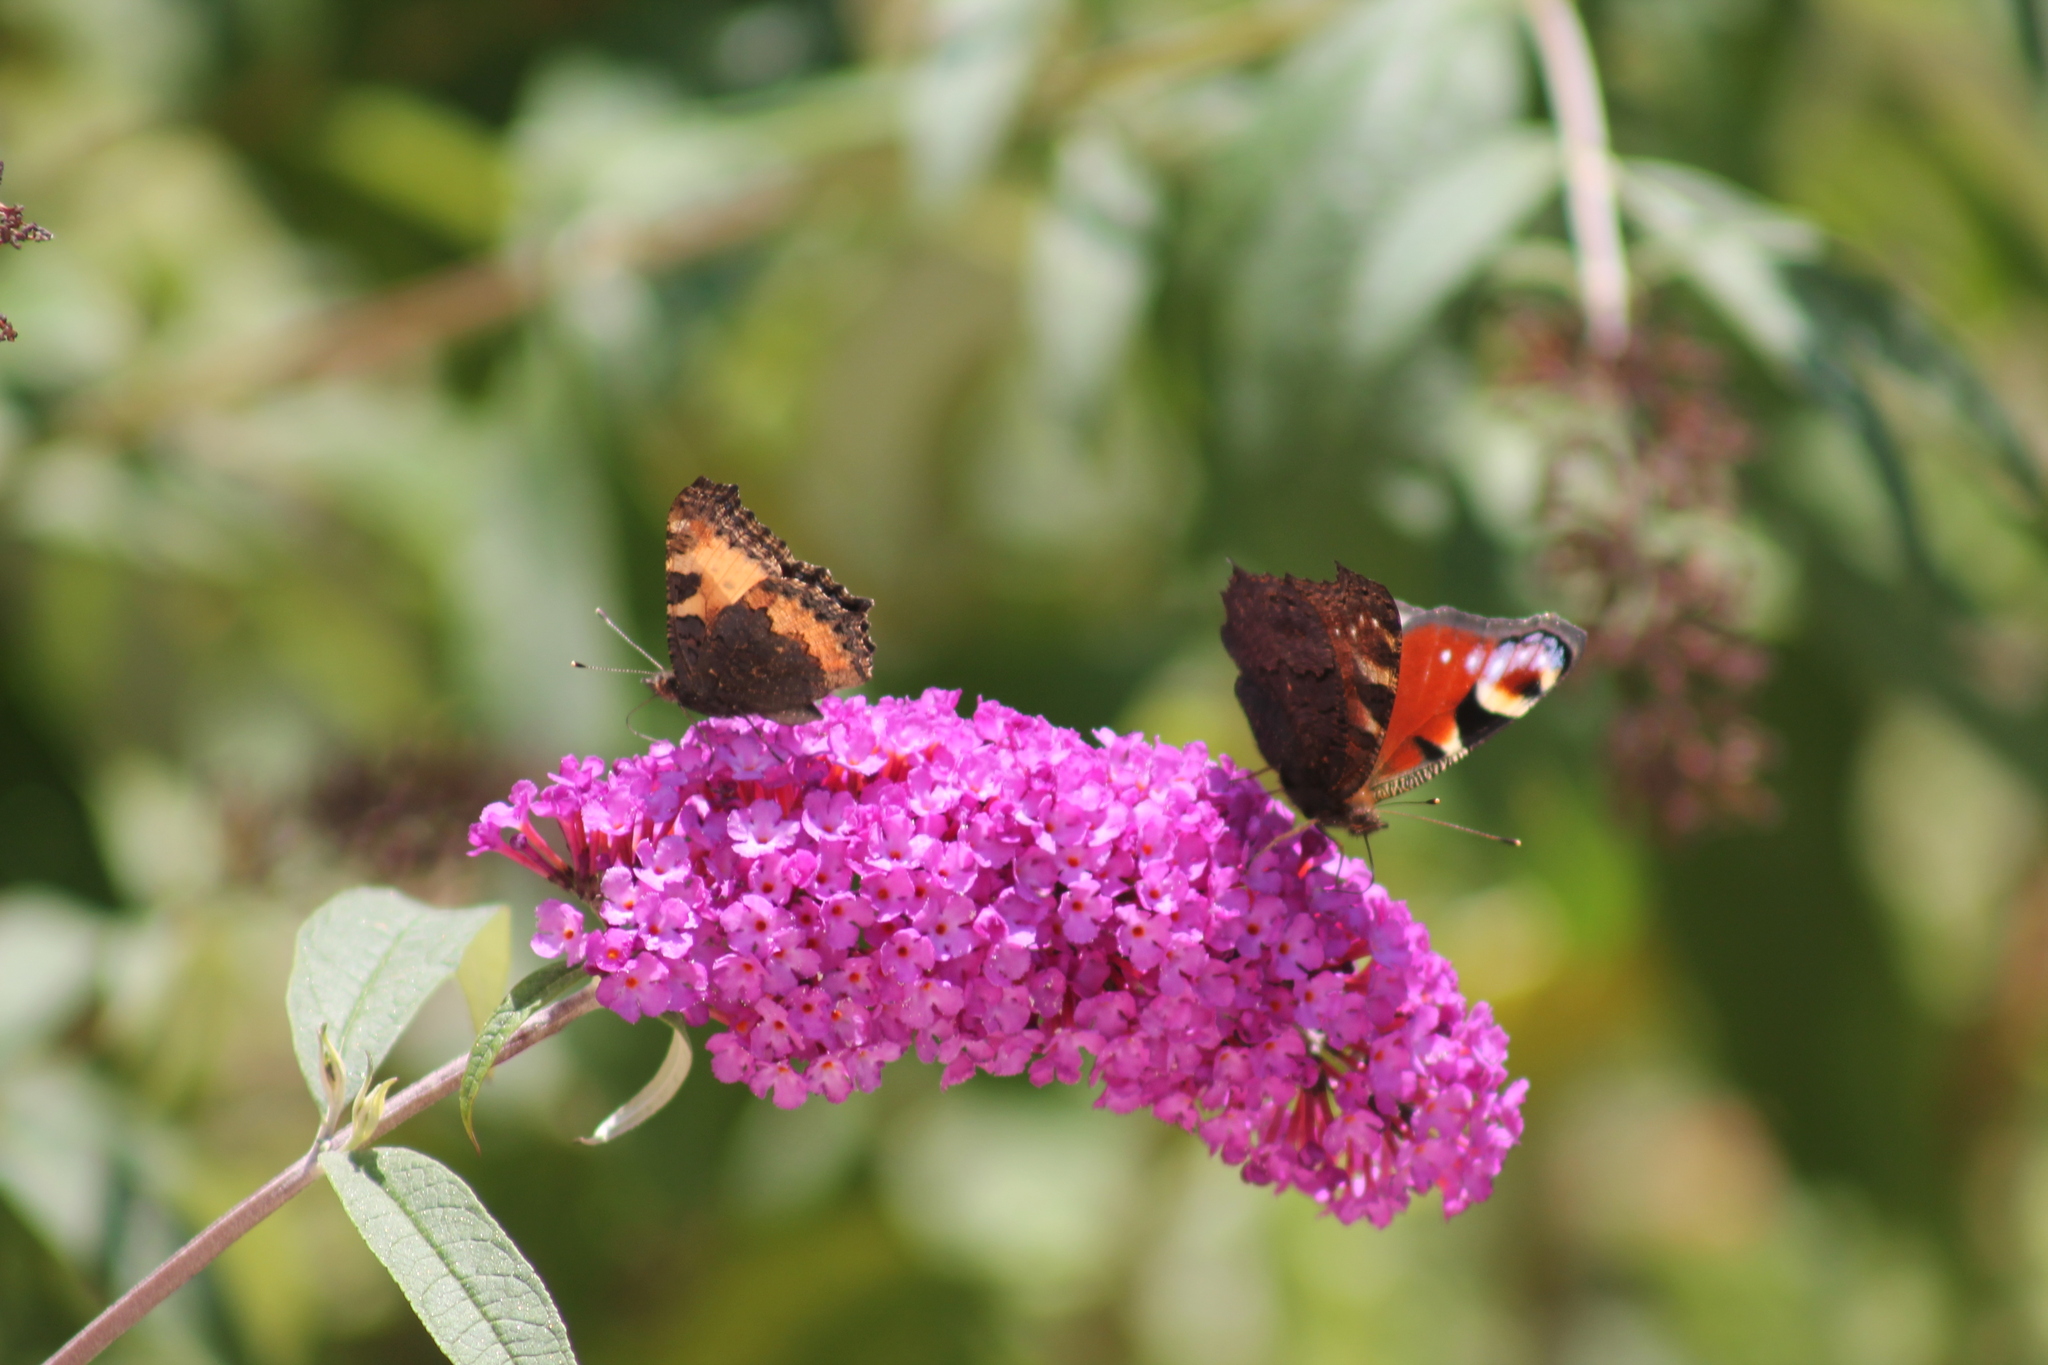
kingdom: Animalia
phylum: Arthropoda
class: Insecta
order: Lepidoptera
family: Nymphalidae
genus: Aglais
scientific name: Aglais io
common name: Peacock
